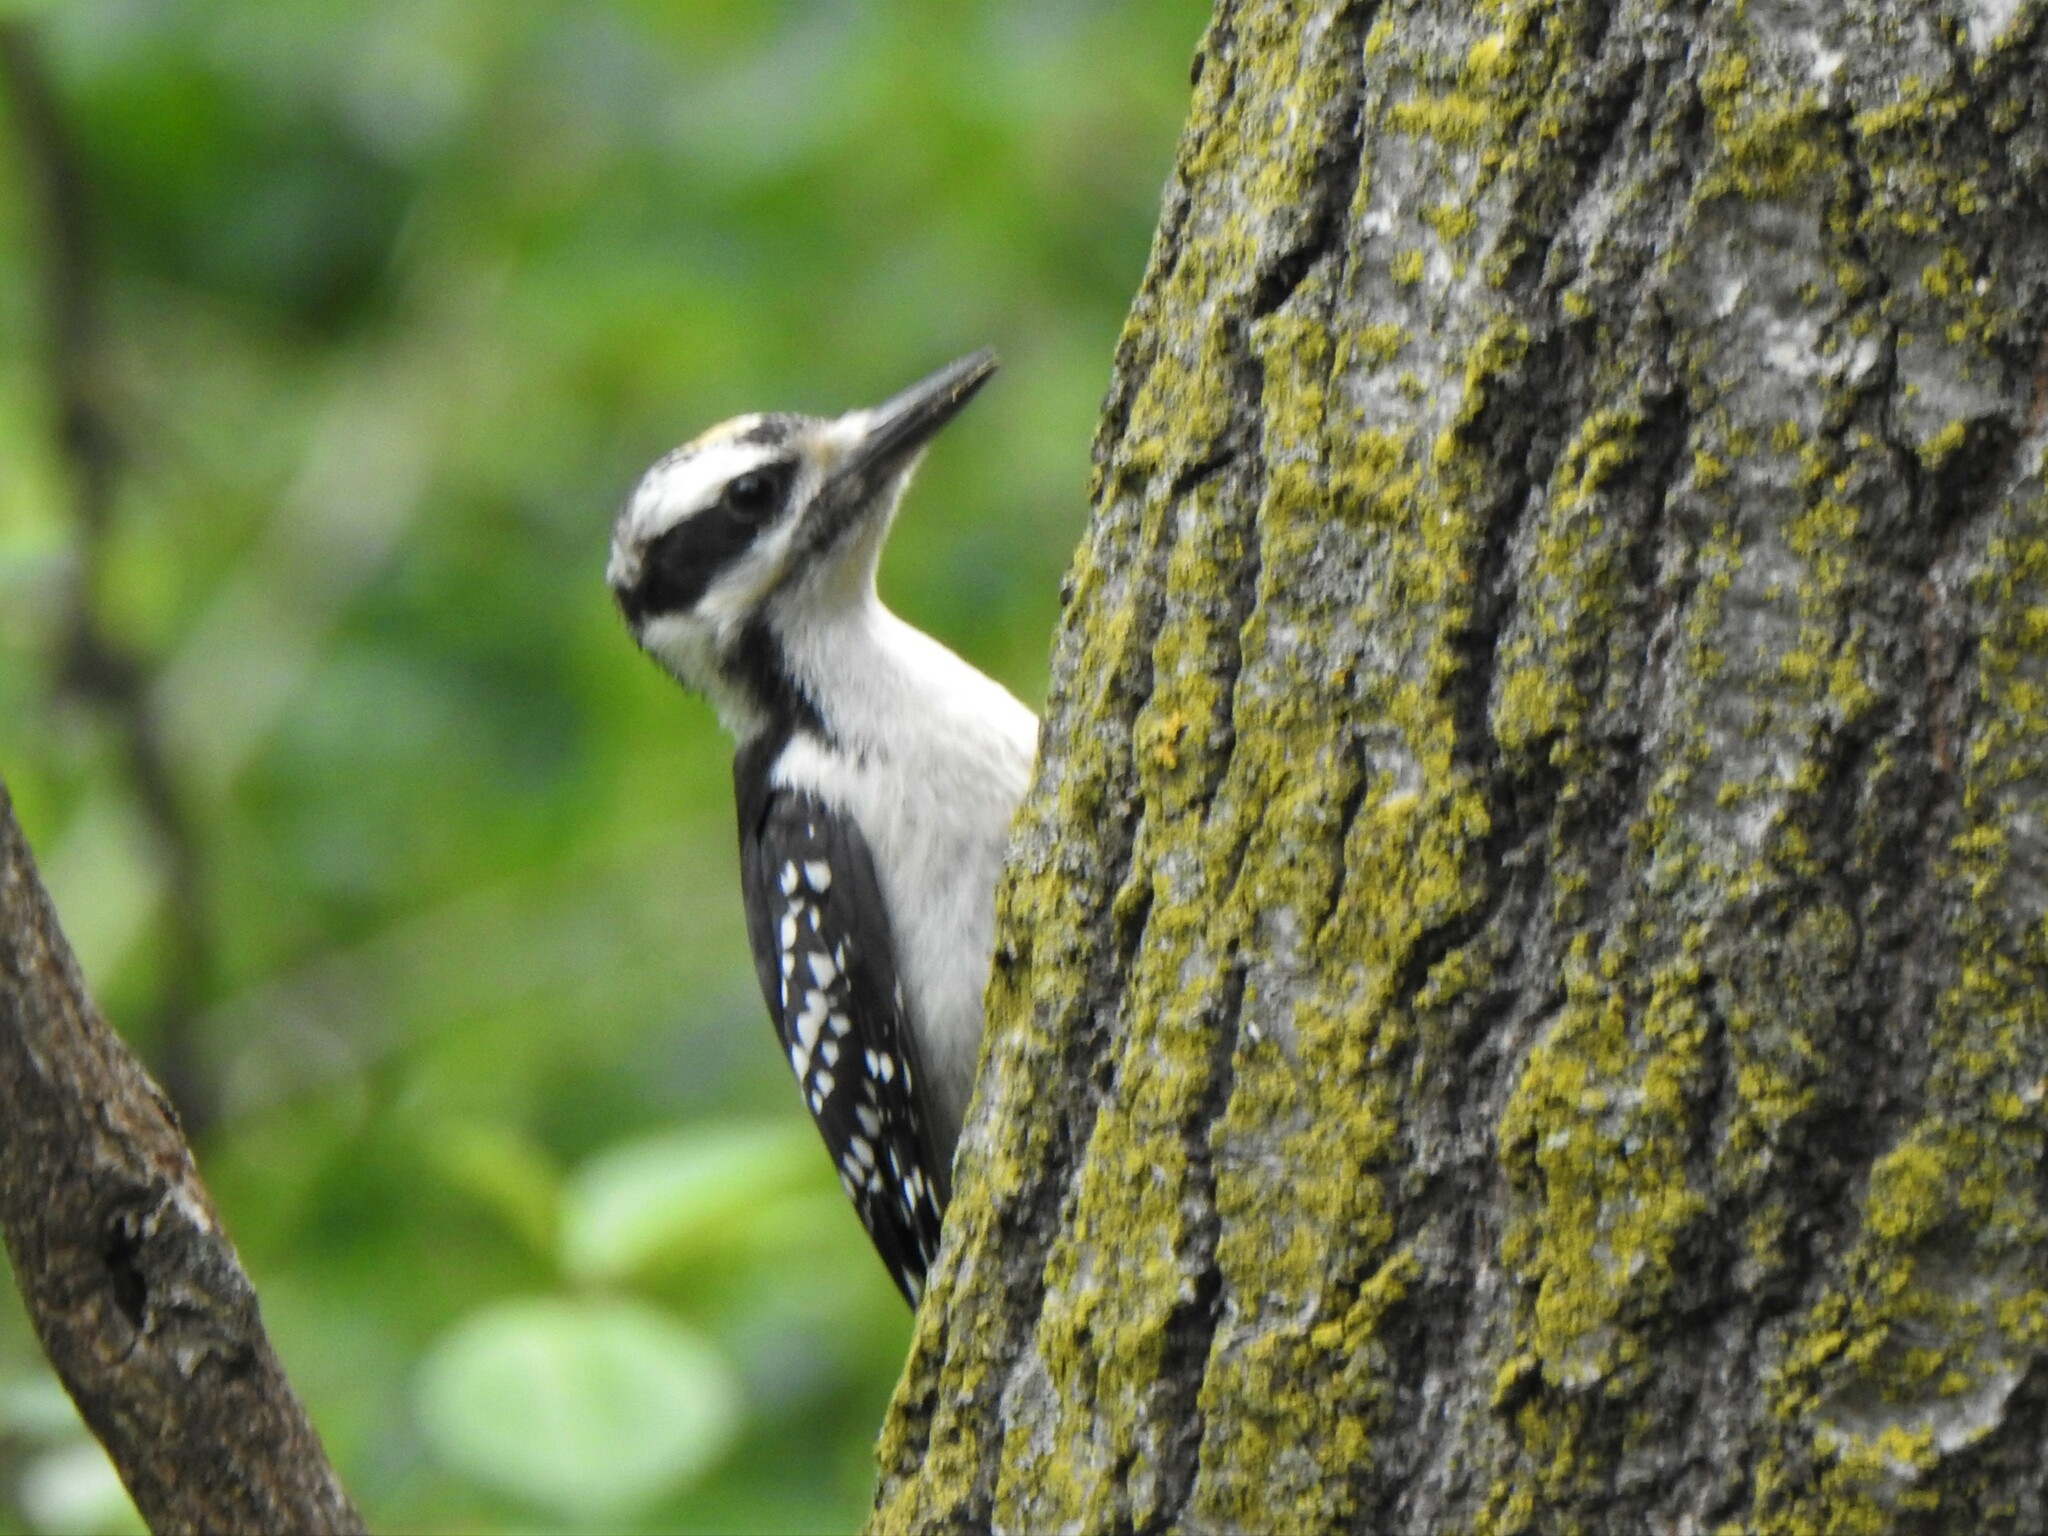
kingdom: Animalia
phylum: Chordata
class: Aves
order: Piciformes
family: Picidae
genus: Leuconotopicus
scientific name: Leuconotopicus villosus
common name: Hairy woodpecker
